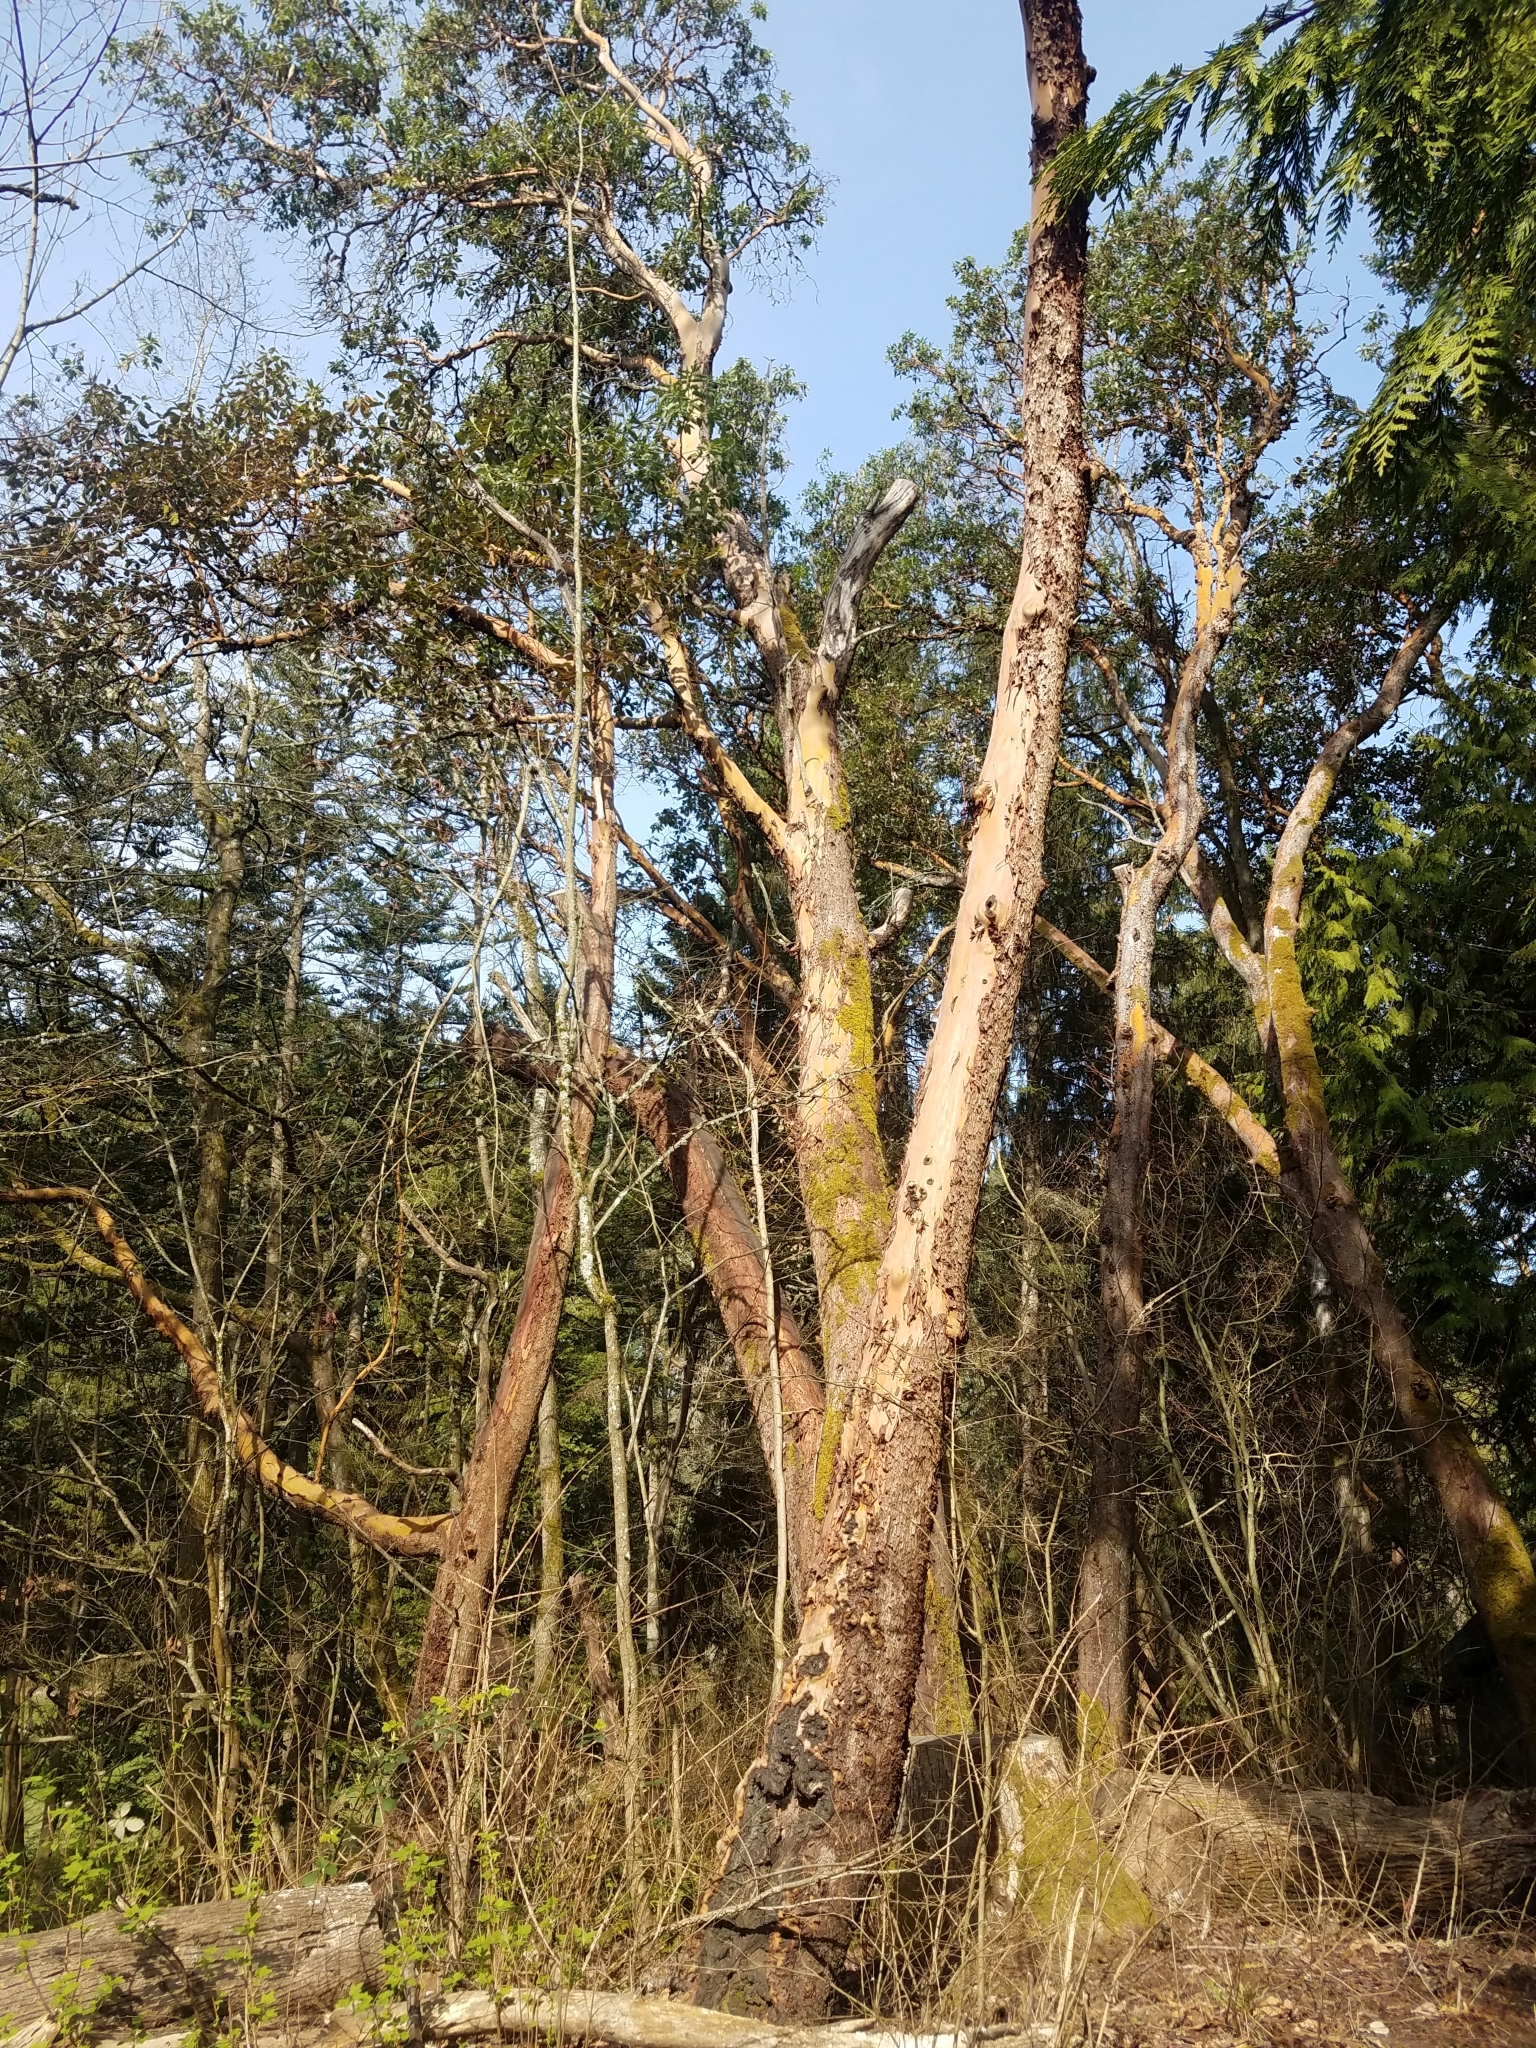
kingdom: Plantae
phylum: Tracheophyta
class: Magnoliopsida
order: Ericales
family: Ericaceae
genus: Arbutus
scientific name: Arbutus menziesii
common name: Pacific madrone
